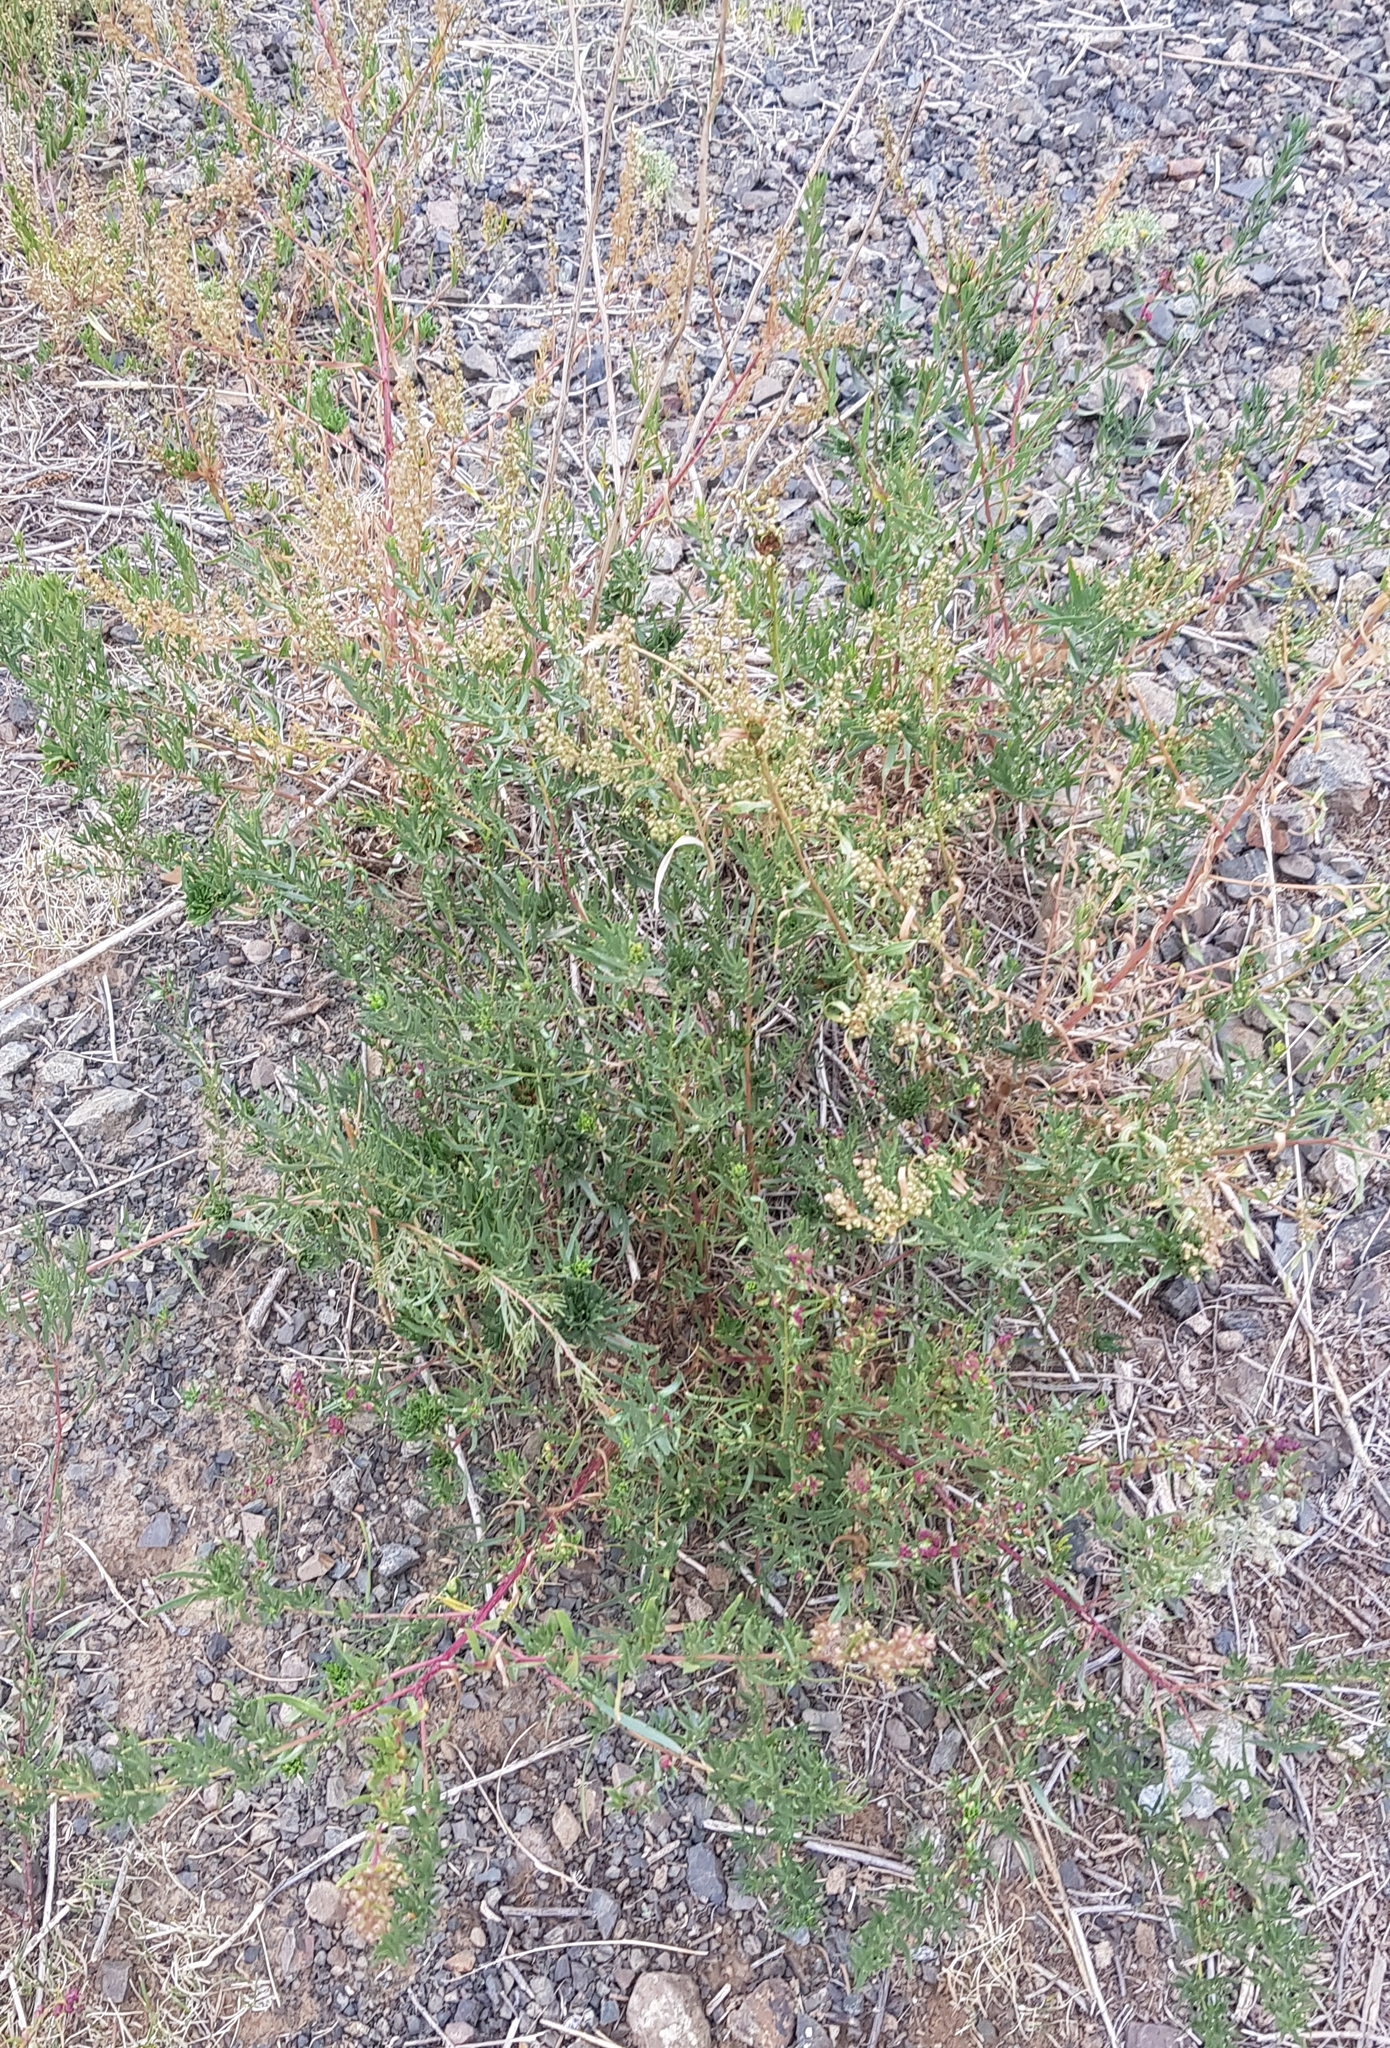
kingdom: Plantae
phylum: Tracheophyta
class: Magnoliopsida
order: Asterales
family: Asteraceae
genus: Artemisia
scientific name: Artemisia dracunculus
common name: Tarragon
